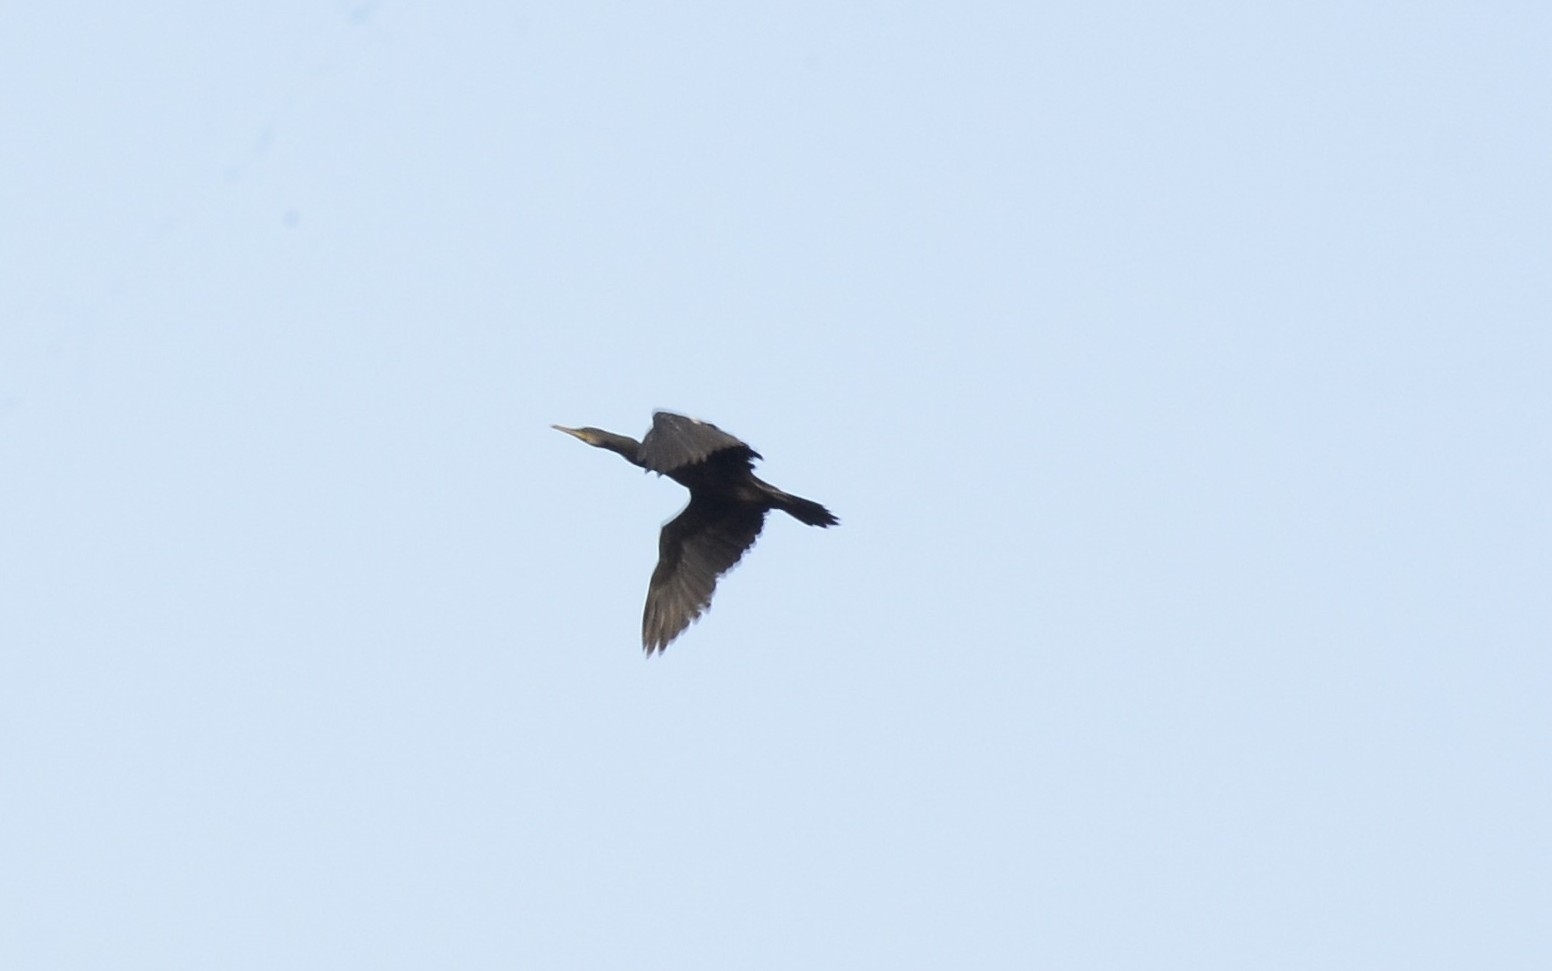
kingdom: Animalia
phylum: Chordata
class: Aves
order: Suliformes
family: Phalacrocoracidae
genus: Phalacrocorax
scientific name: Phalacrocorax fuscicollis
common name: Indian cormorant
